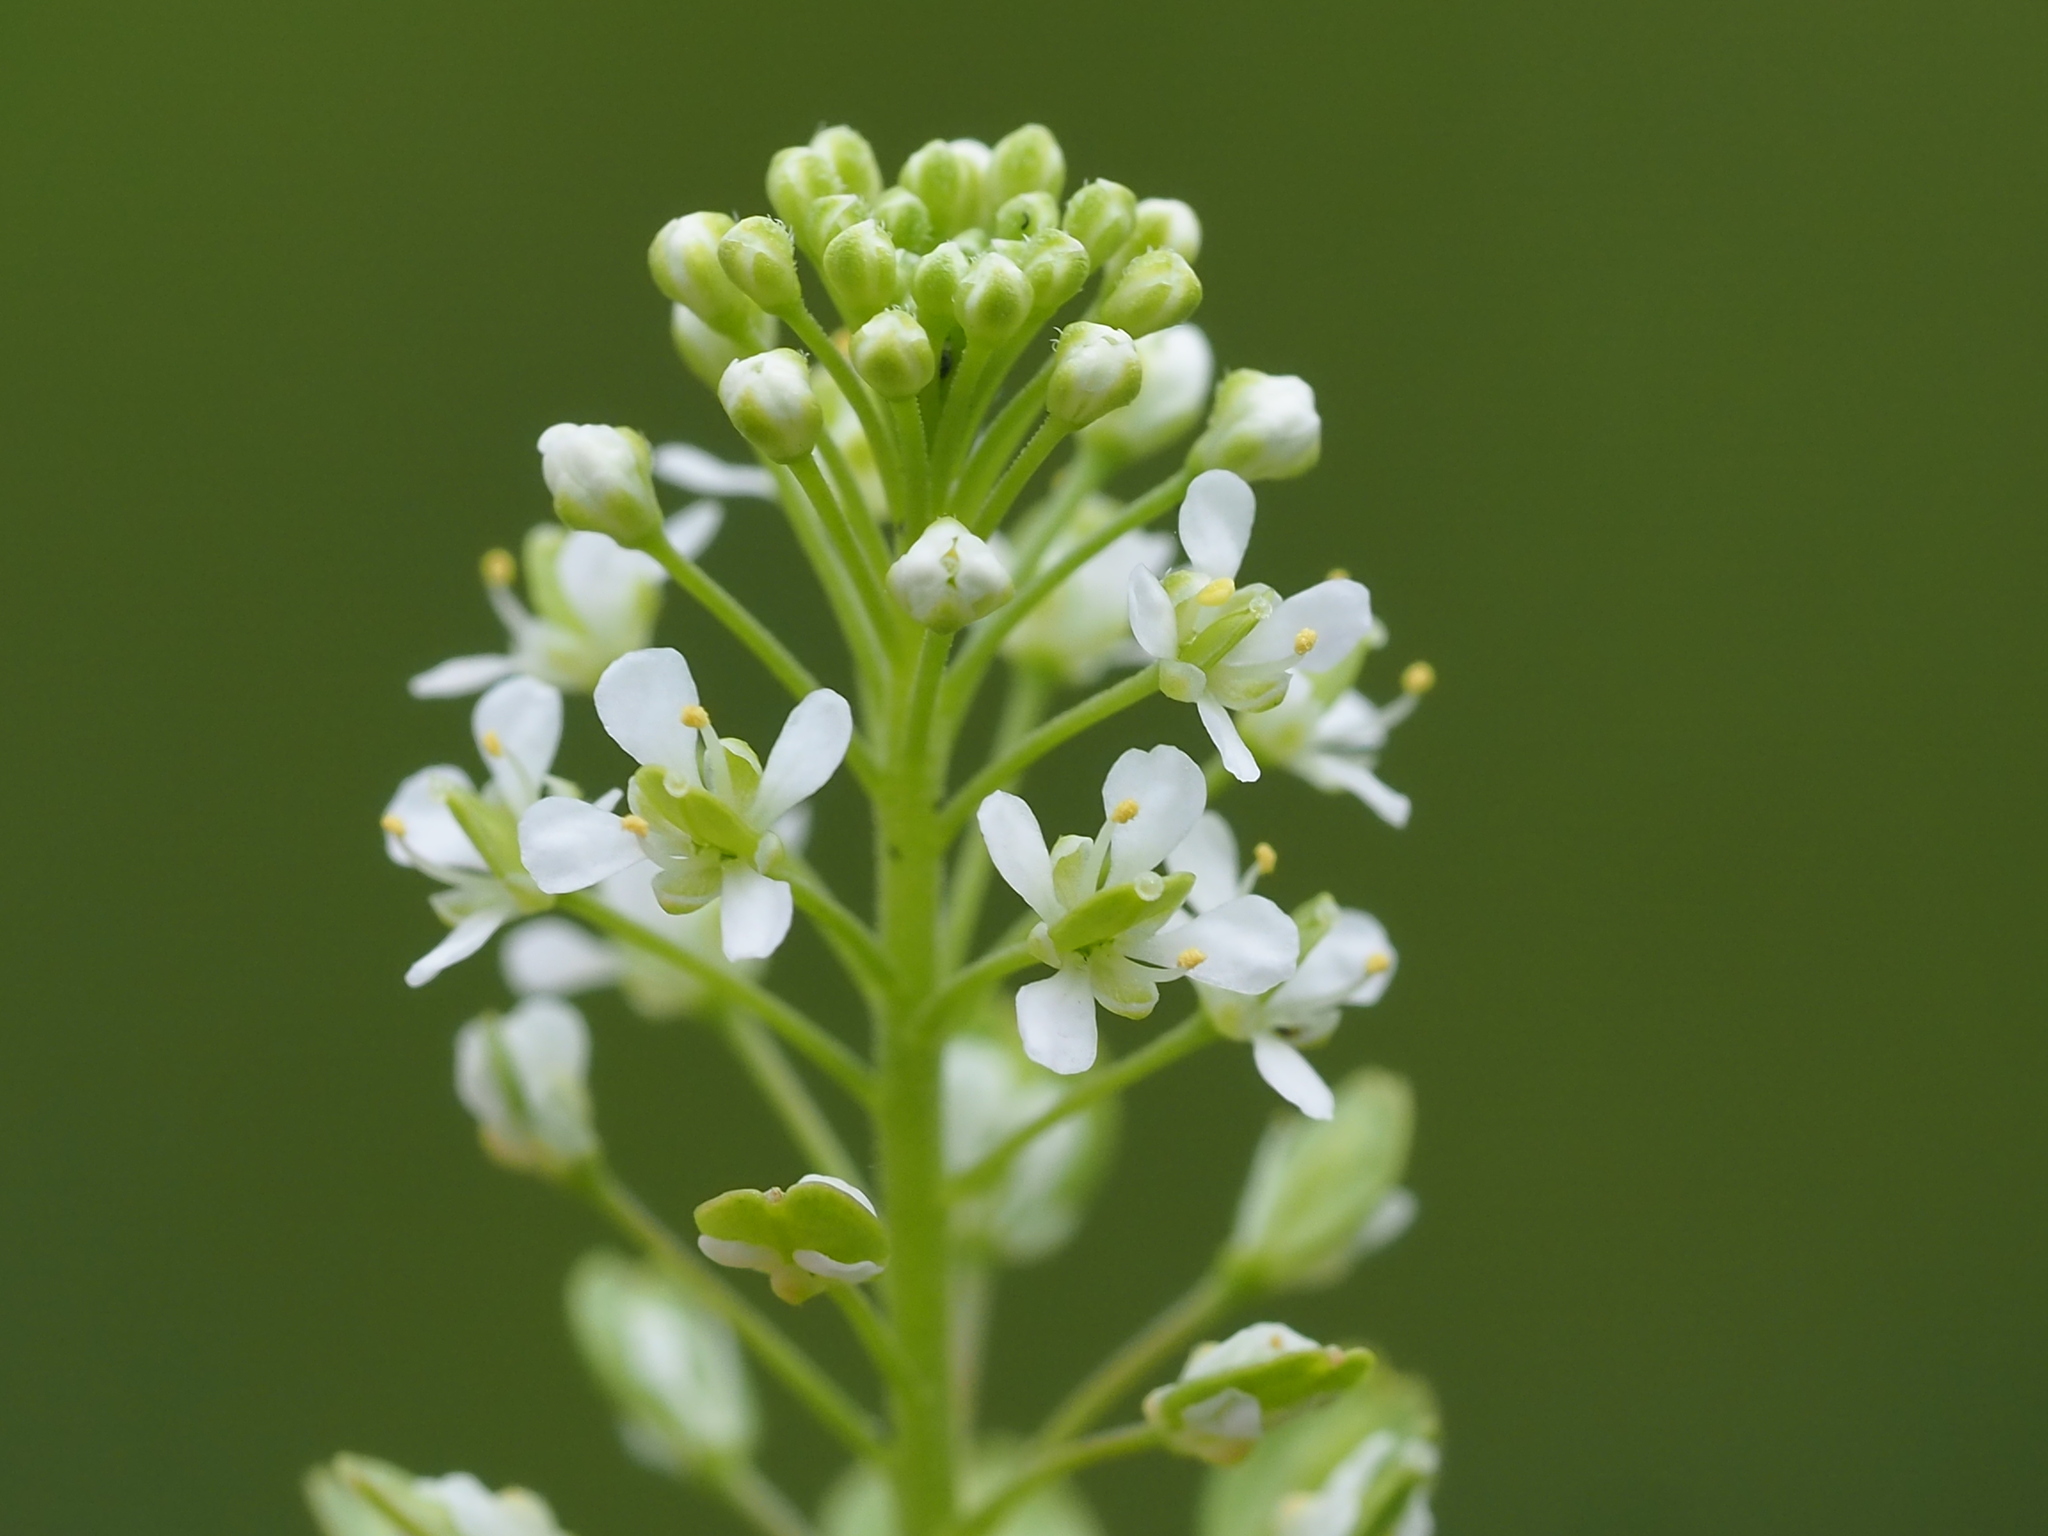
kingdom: Plantae
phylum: Tracheophyta
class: Magnoliopsida
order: Brassicales
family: Brassicaceae
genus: Lepidium
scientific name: Lepidium virginicum
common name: Least pepperwort
